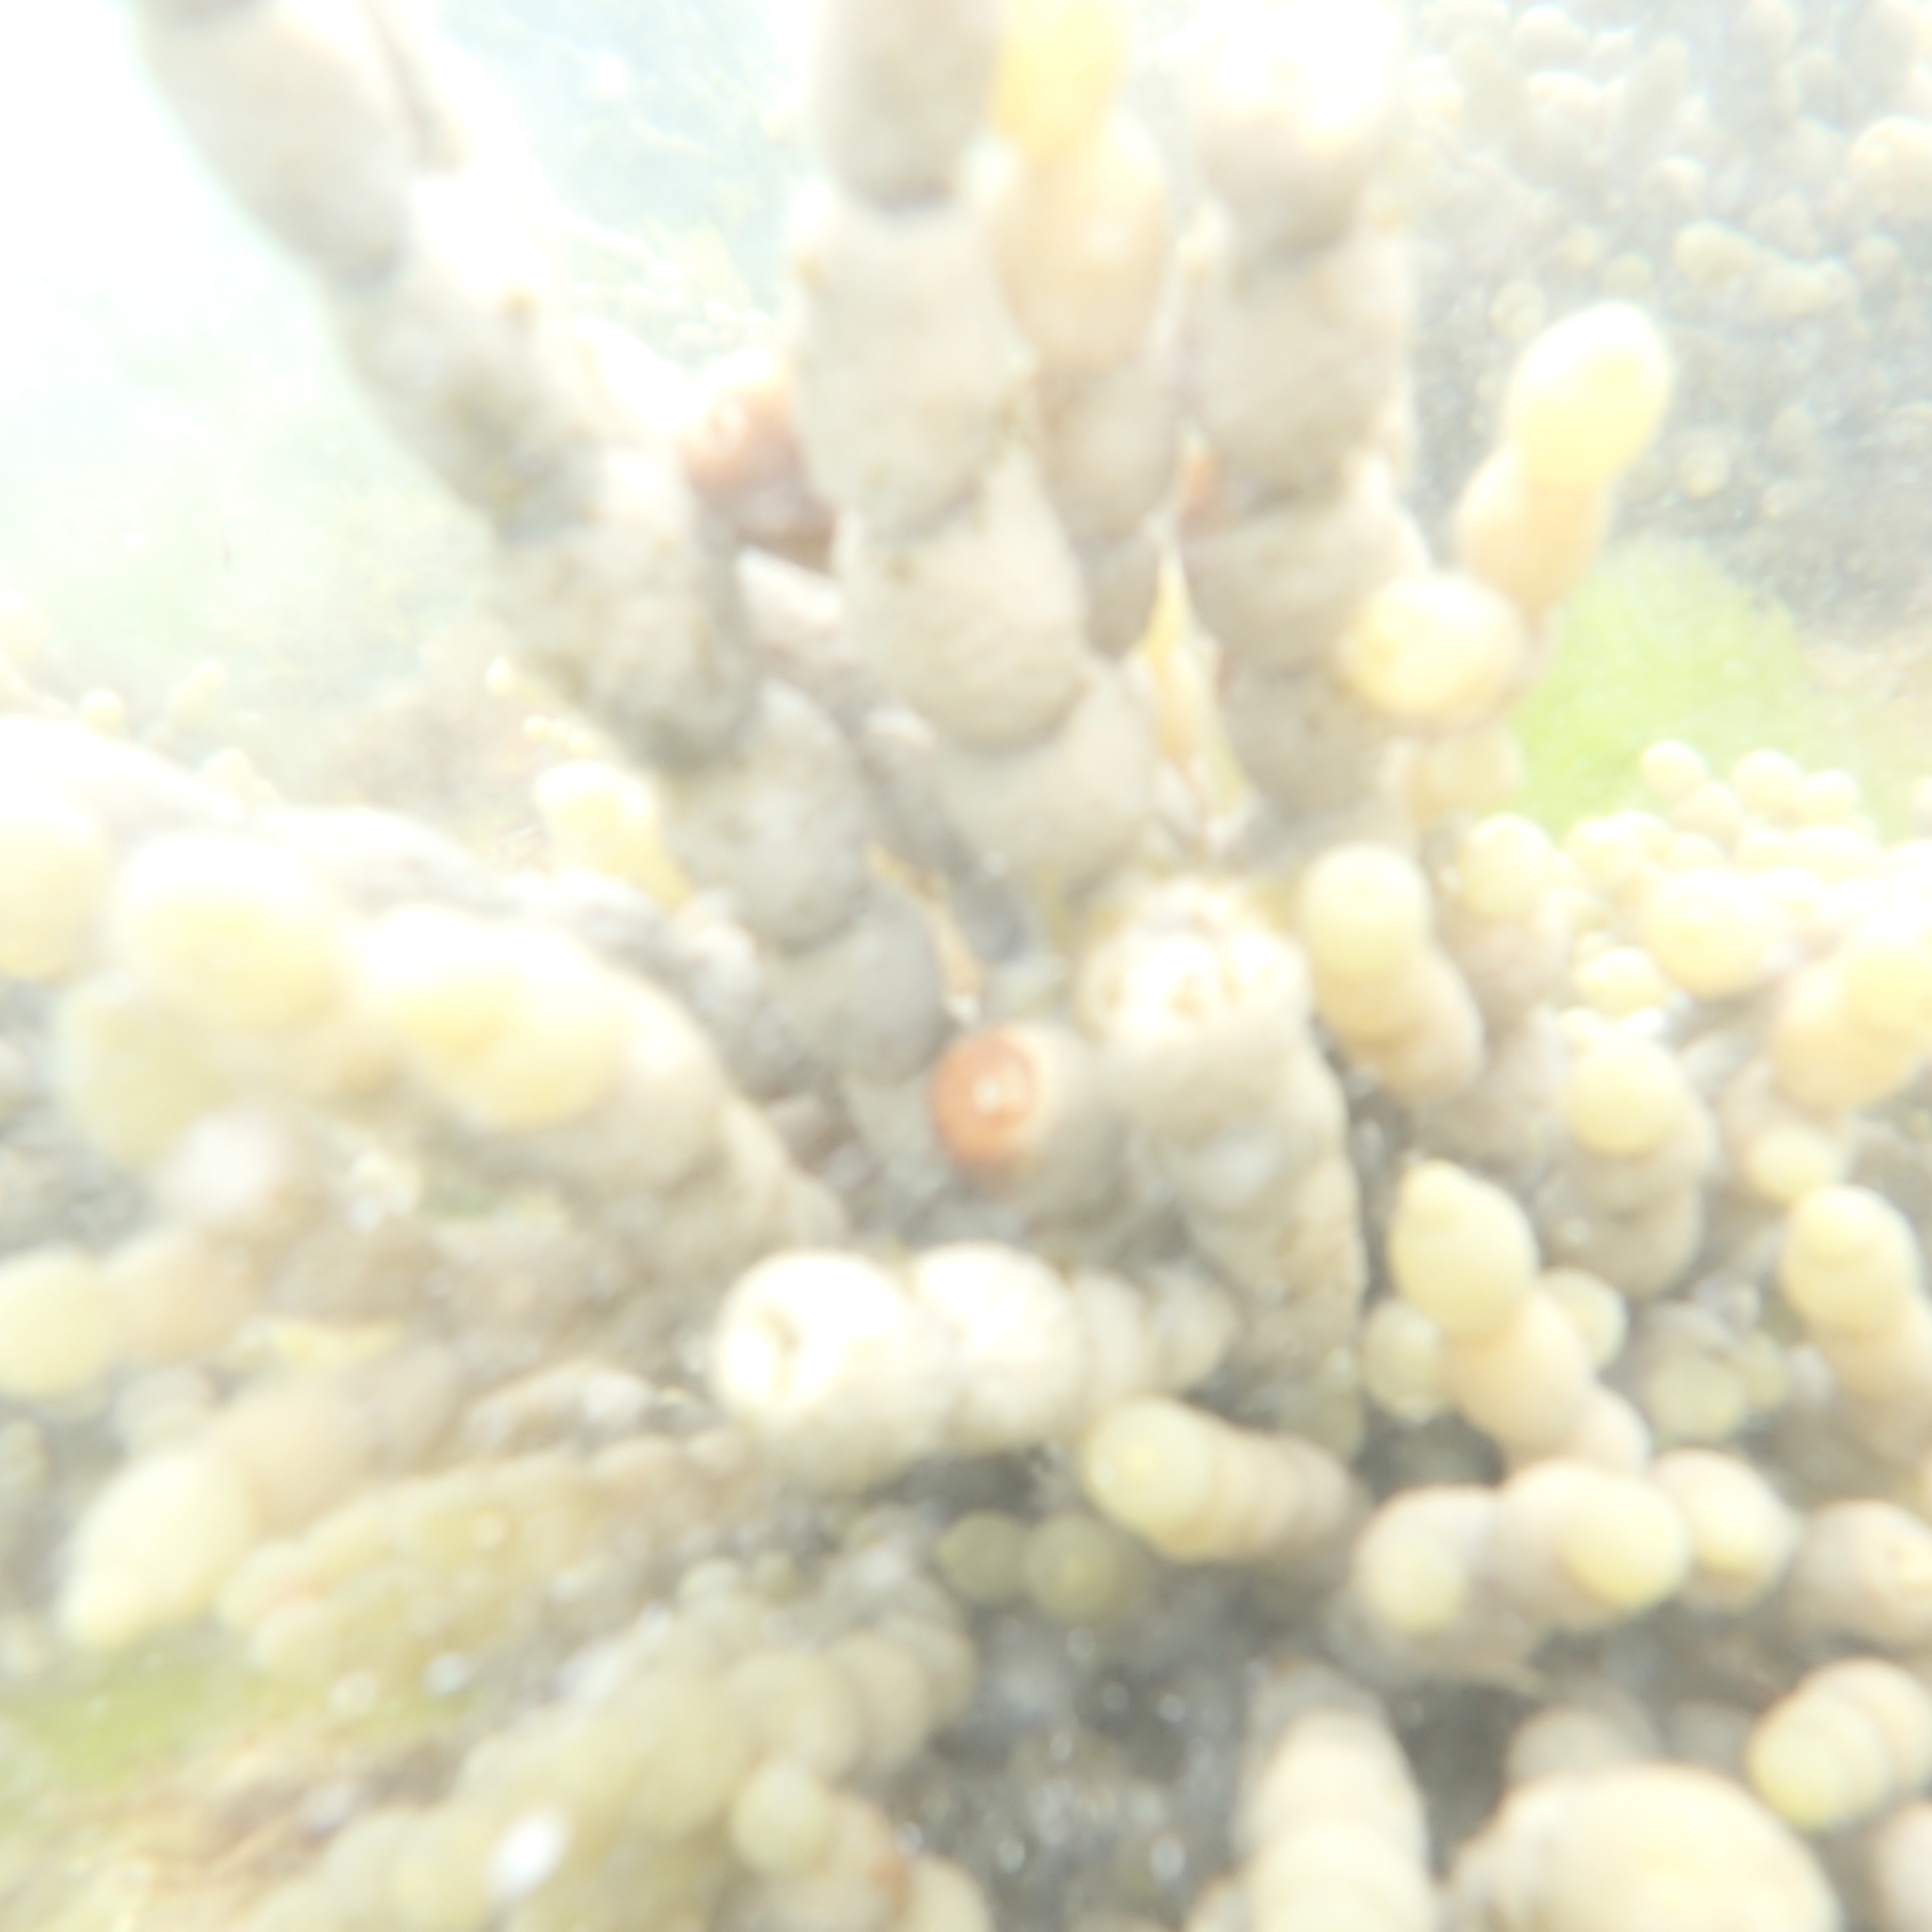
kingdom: Chromista
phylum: Ochrophyta
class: Phaeophyceae
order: Fucales
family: Hormosiraceae
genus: Hormosira
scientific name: Hormosira banksii
